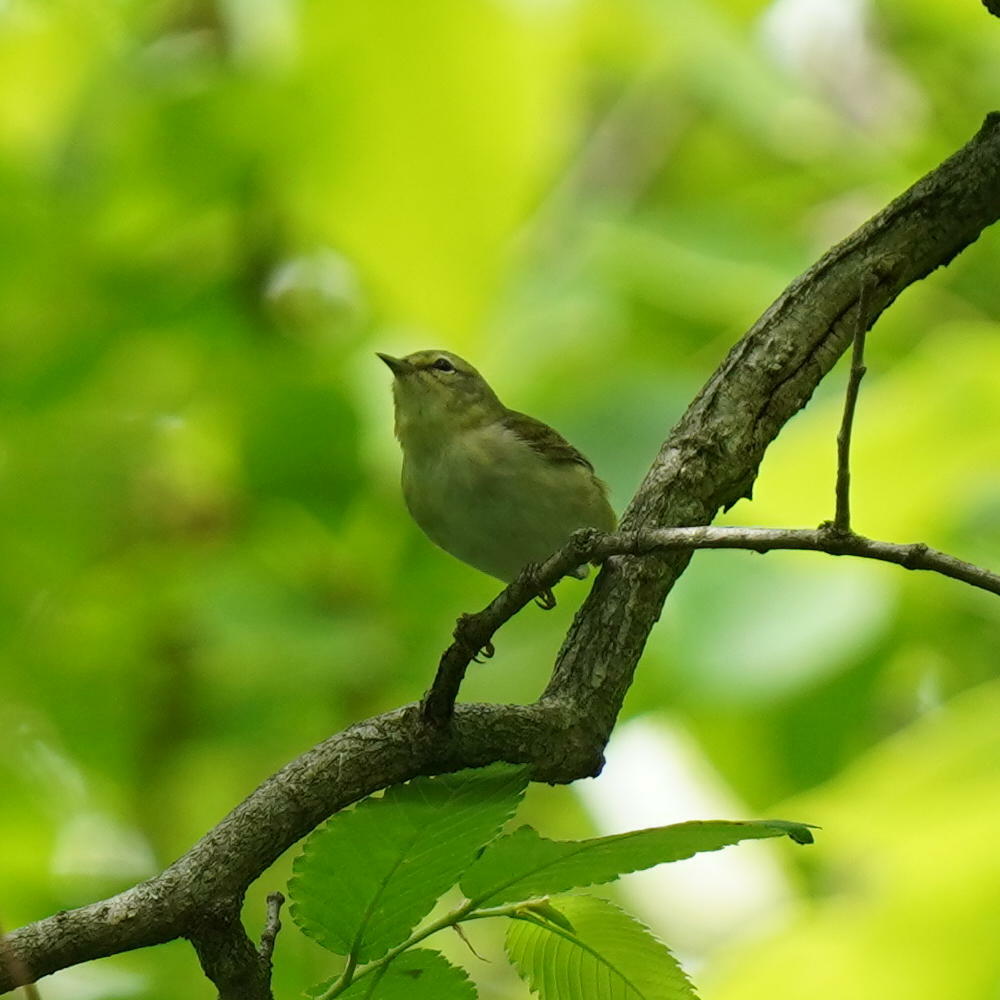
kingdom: Animalia
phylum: Chordata
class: Aves
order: Passeriformes
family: Parulidae
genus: Leiothlypis
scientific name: Leiothlypis peregrina
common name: Tennessee warbler
